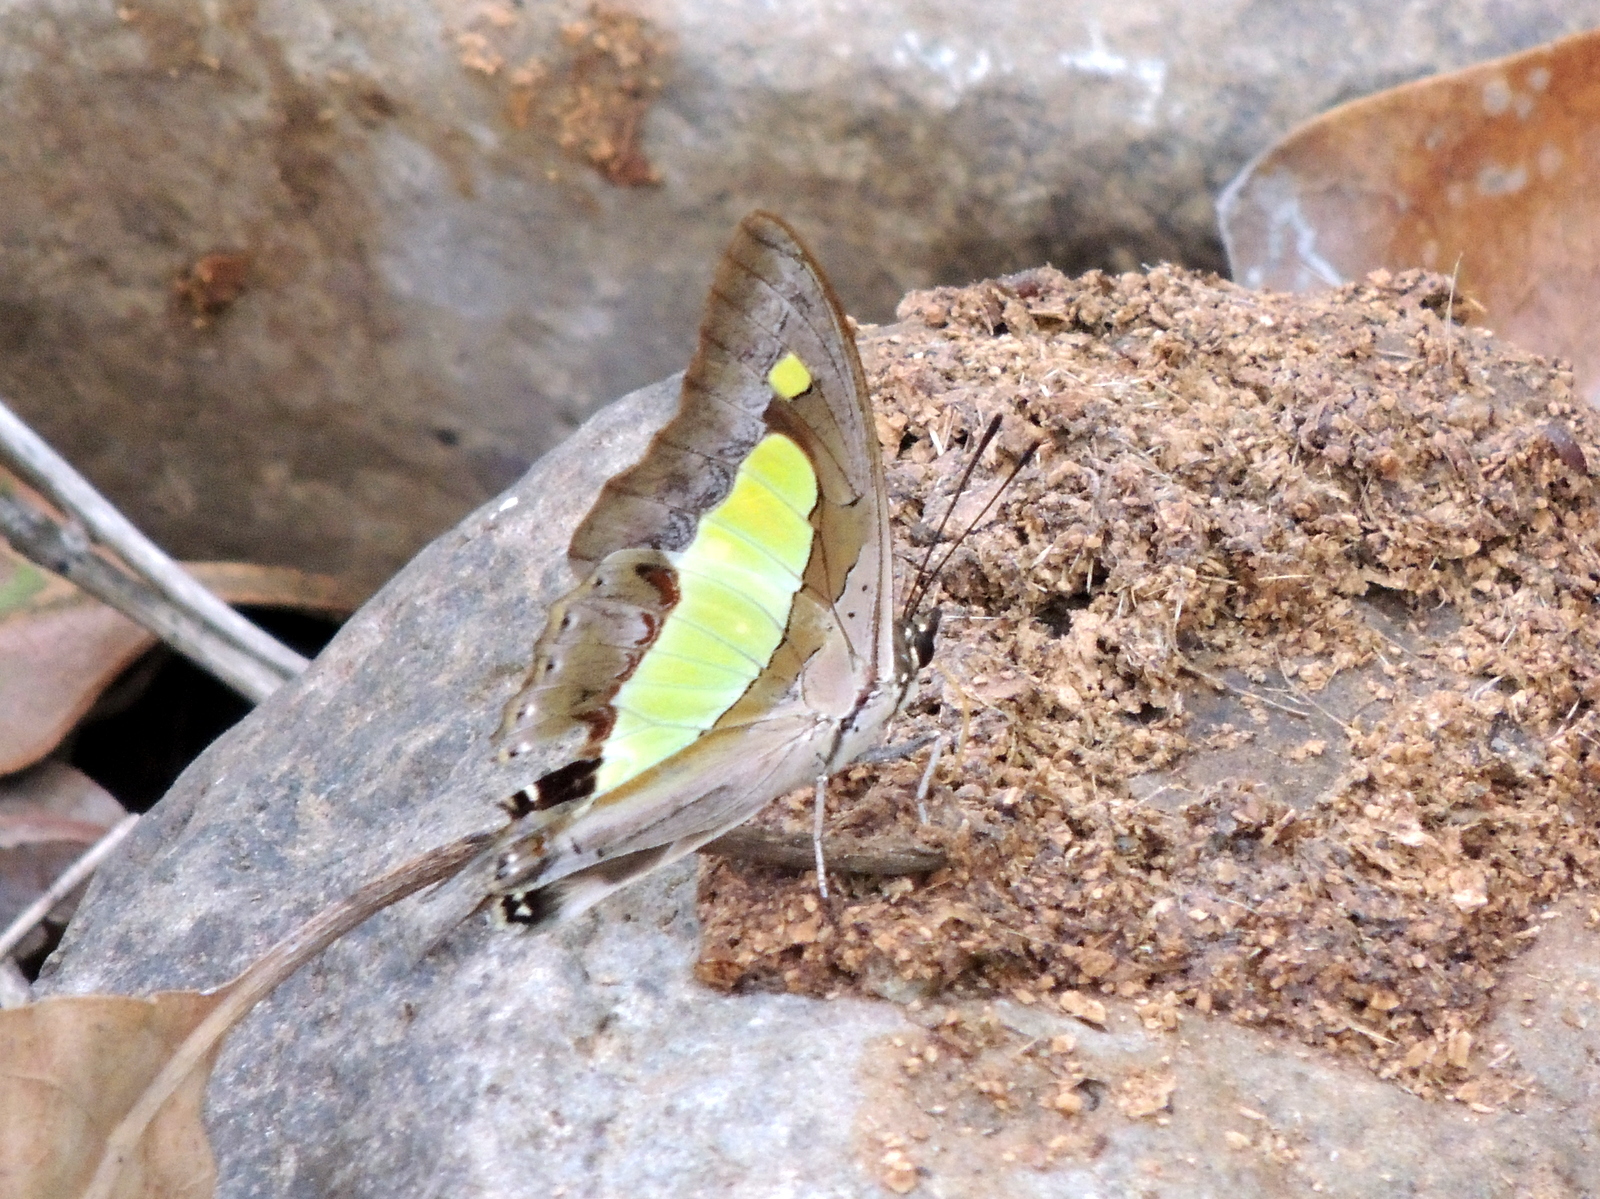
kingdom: Animalia
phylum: Arthropoda
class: Insecta
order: Lepidoptera
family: Nymphalidae
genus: Polyura
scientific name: Polyura
